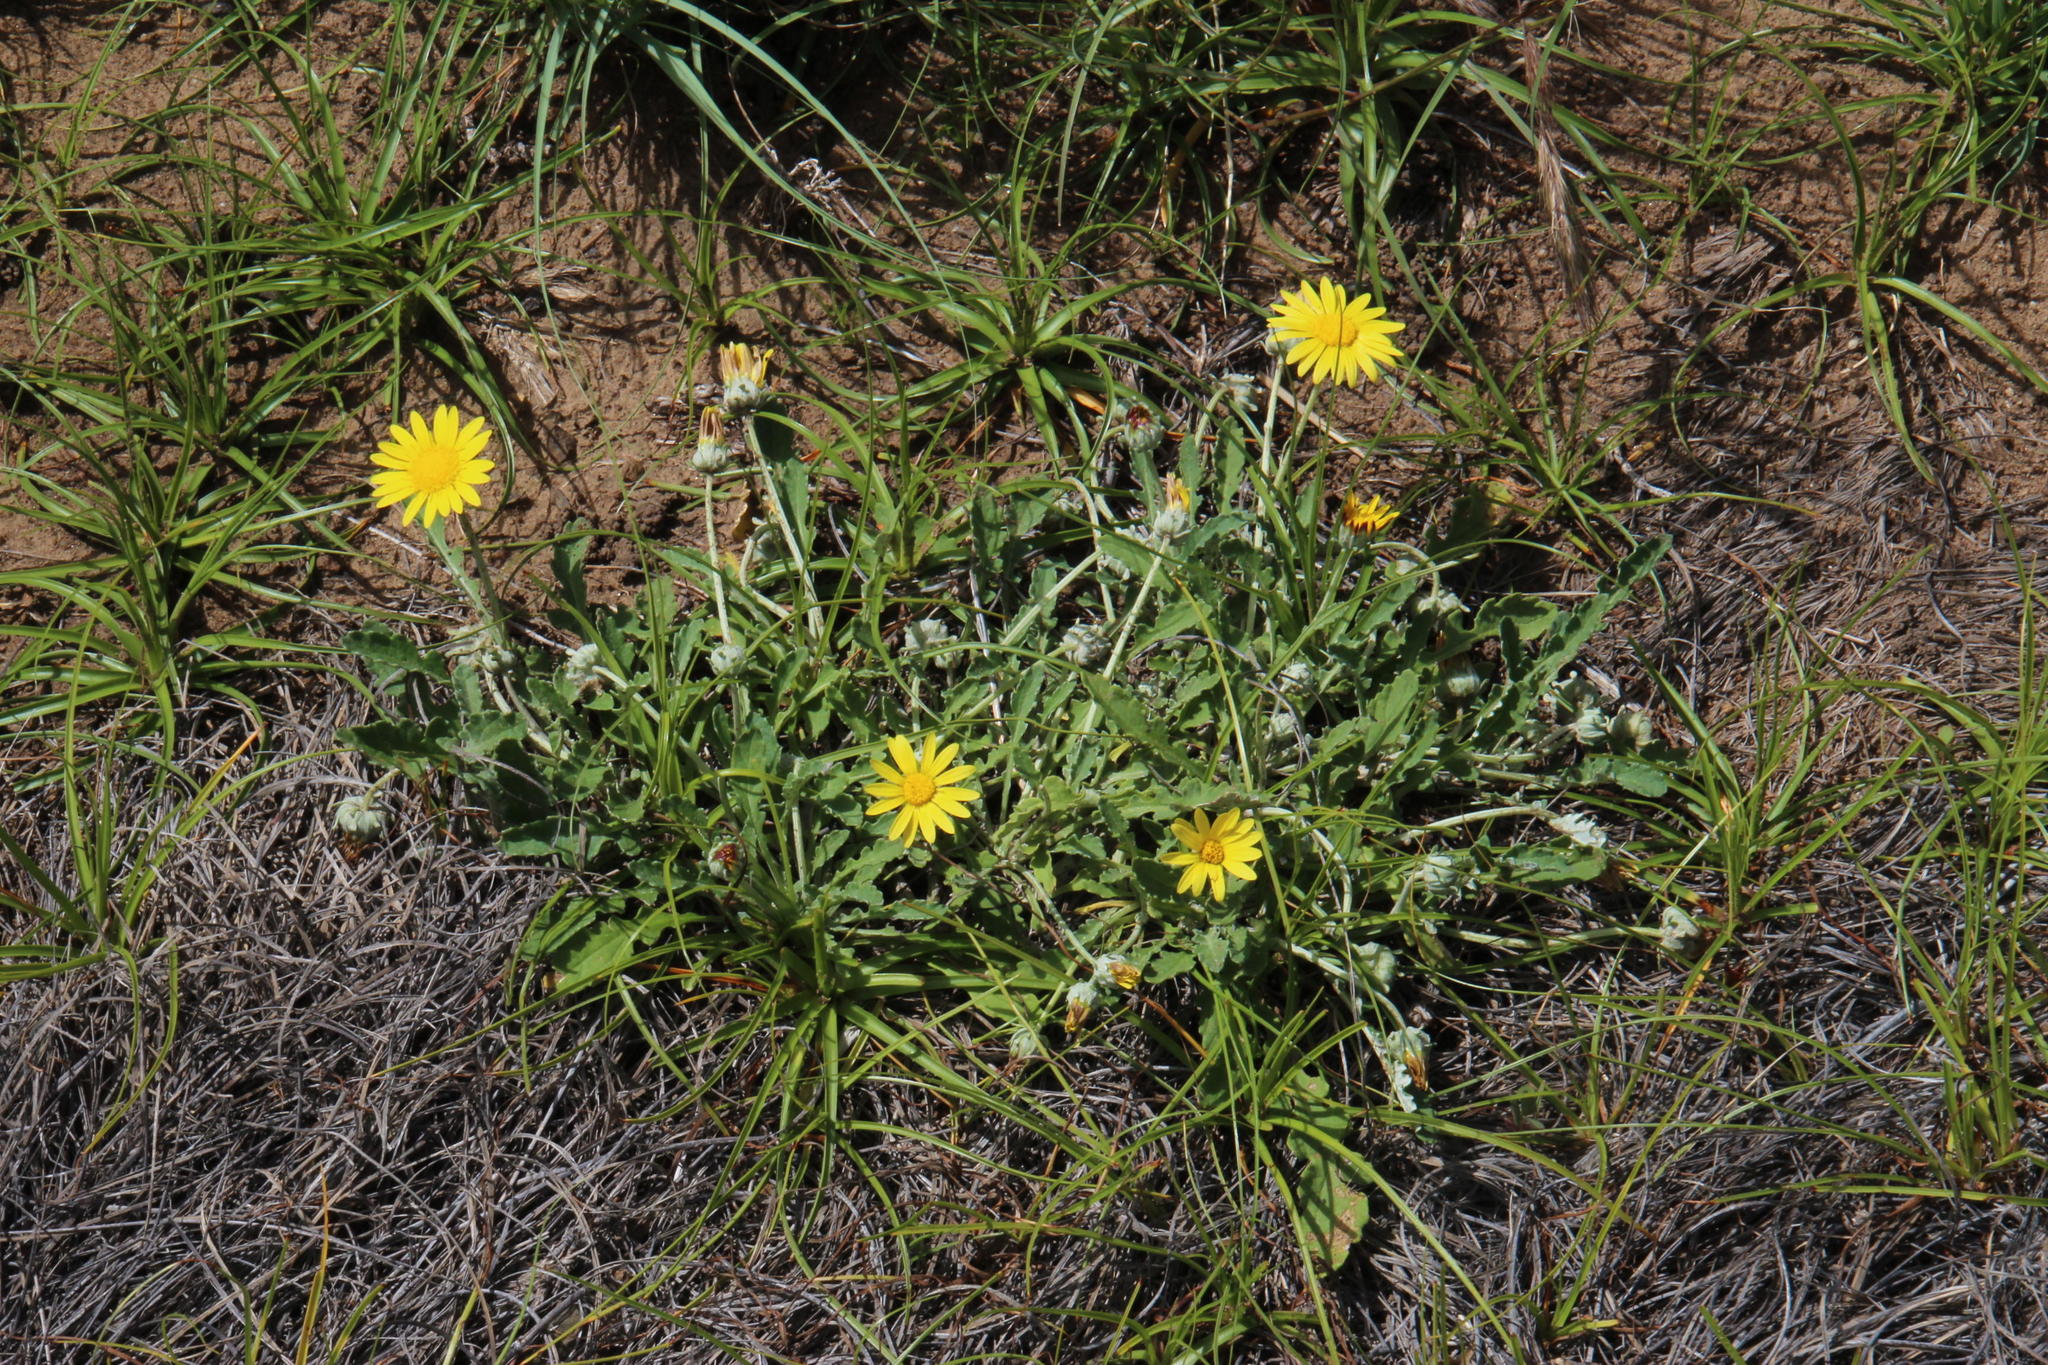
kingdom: Plantae
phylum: Tracheophyta
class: Magnoliopsida
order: Asterales
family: Asteraceae
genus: Arctotis
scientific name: Arctotis arctotoides
